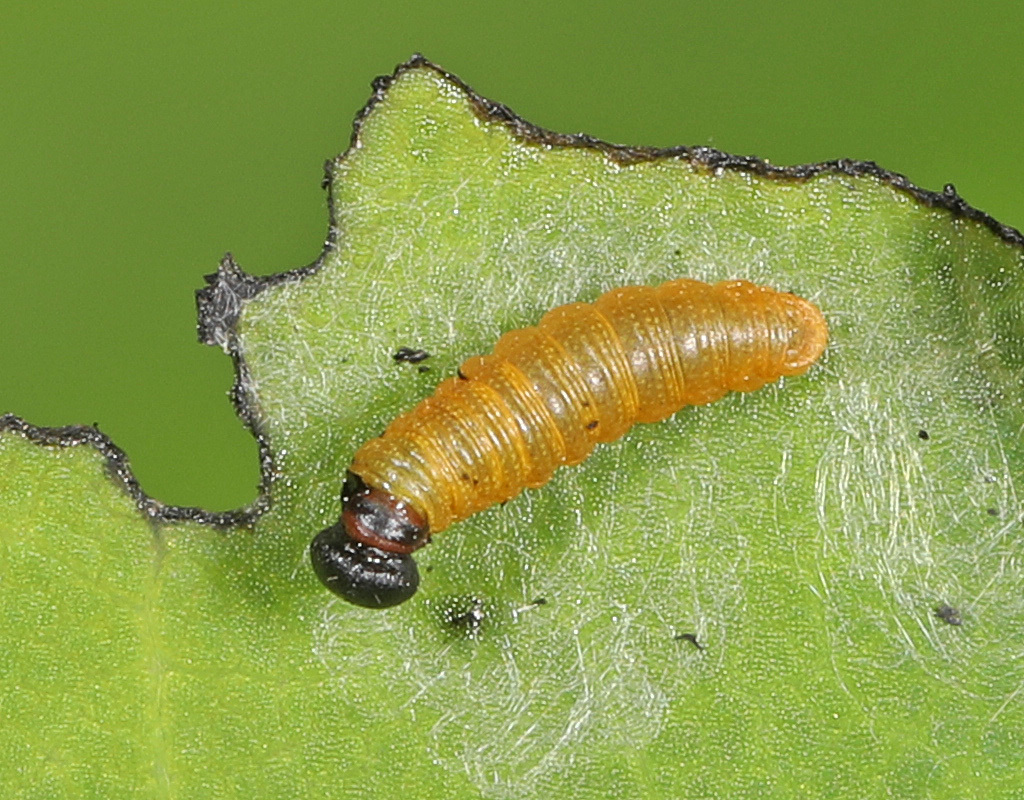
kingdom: Animalia
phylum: Arthropoda
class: Insecta
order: Lepidoptera
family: Hesperiidae
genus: Epargyreus
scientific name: Epargyreus clarus
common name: Silver-spotted skipper
